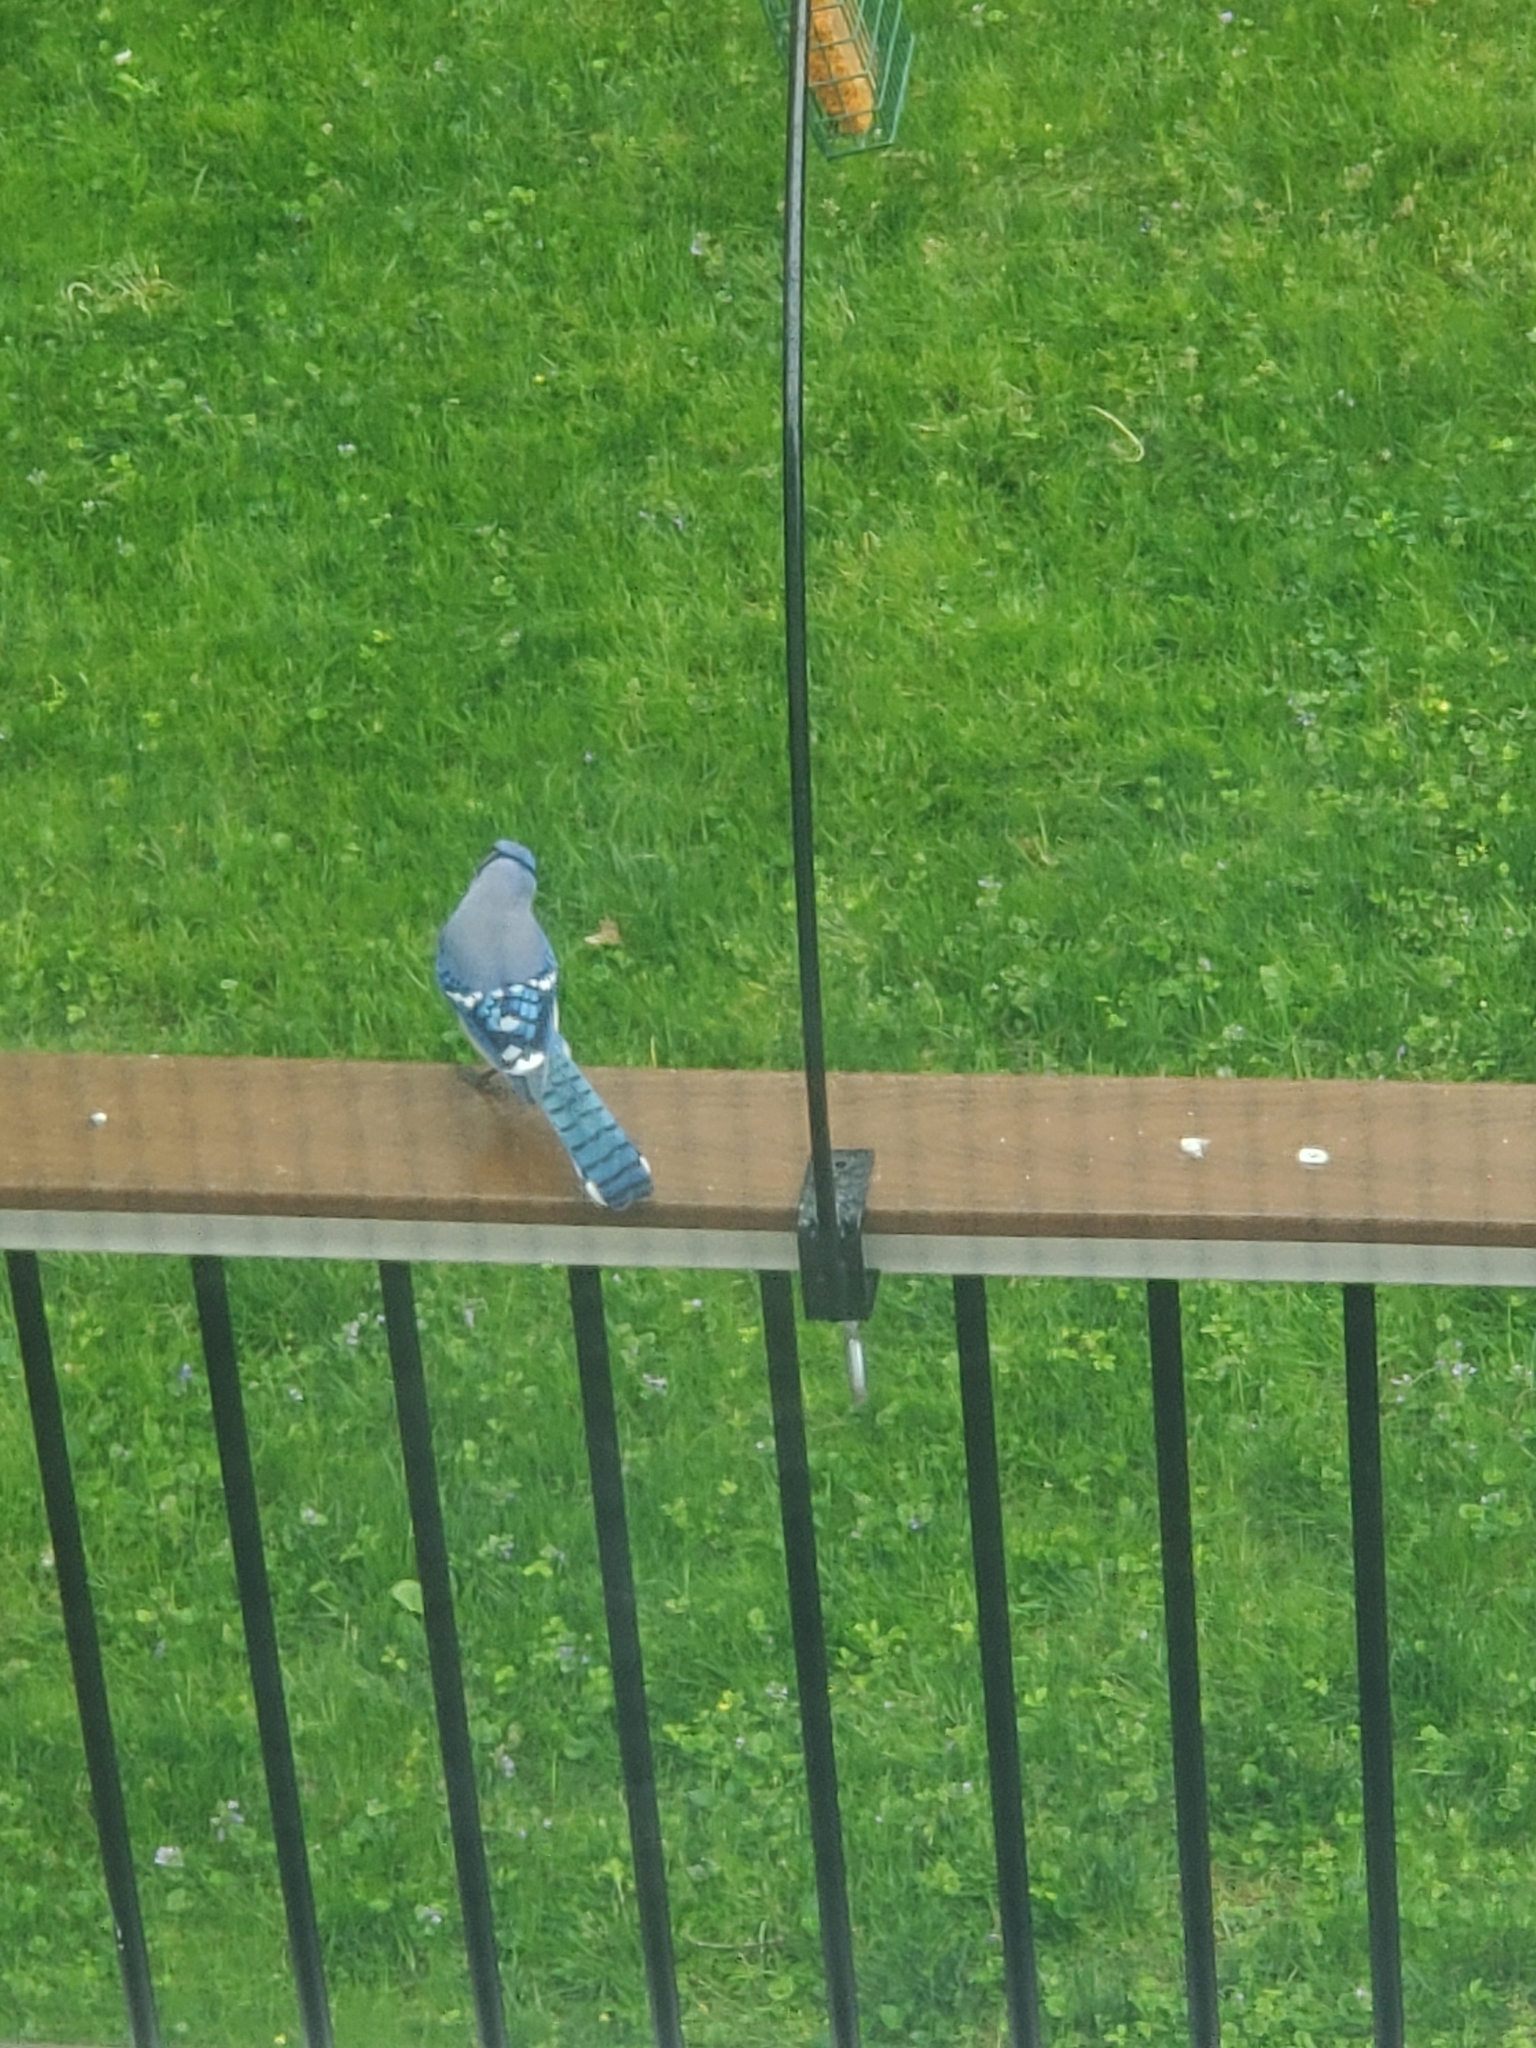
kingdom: Animalia
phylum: Chordata
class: Aves
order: Passeriformes
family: Corvidae
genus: Cyanocitta
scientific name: Cyanocitta cristata
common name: Blue jay
